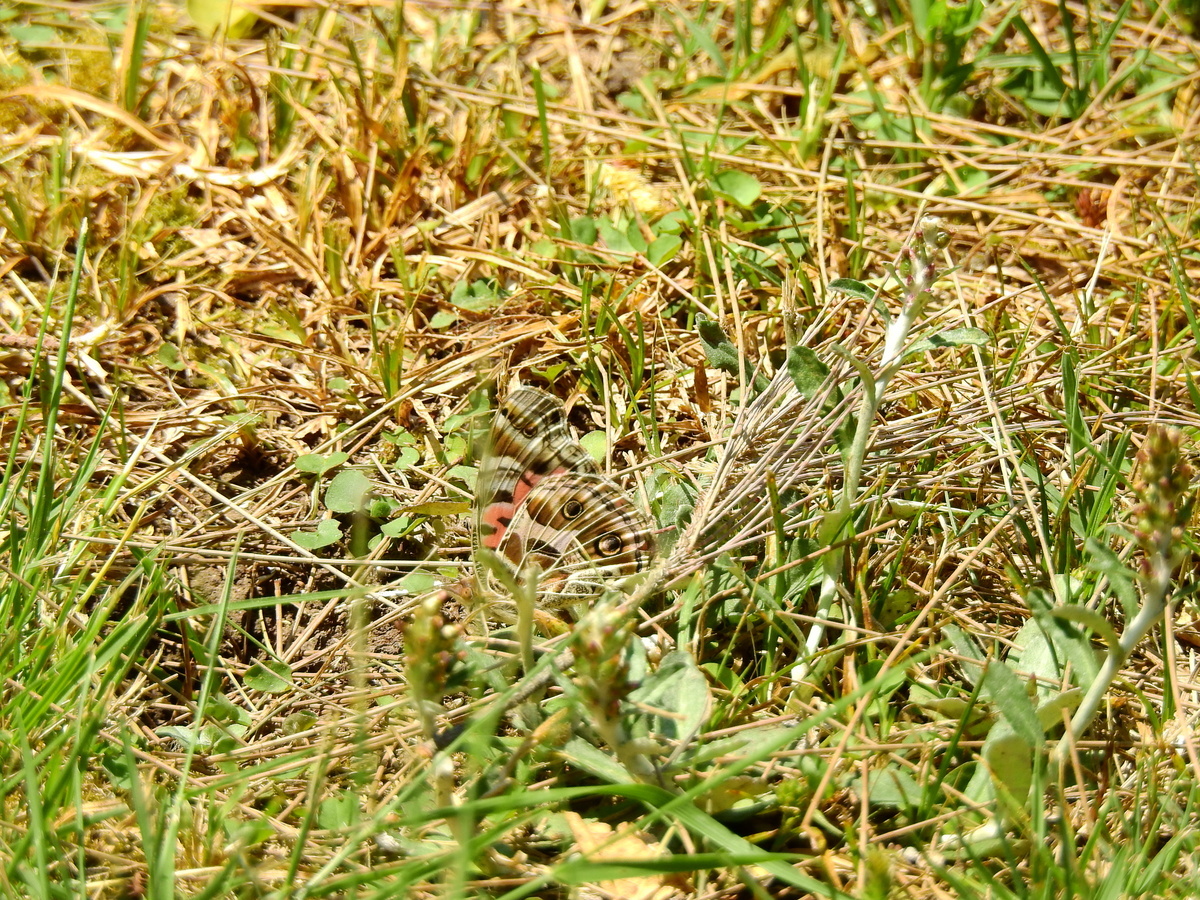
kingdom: Animalia
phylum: Arthropoda
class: Insecta
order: Lepidoptera
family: Nymphalidae
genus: Vanessa
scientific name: Vanessa braziliensis
